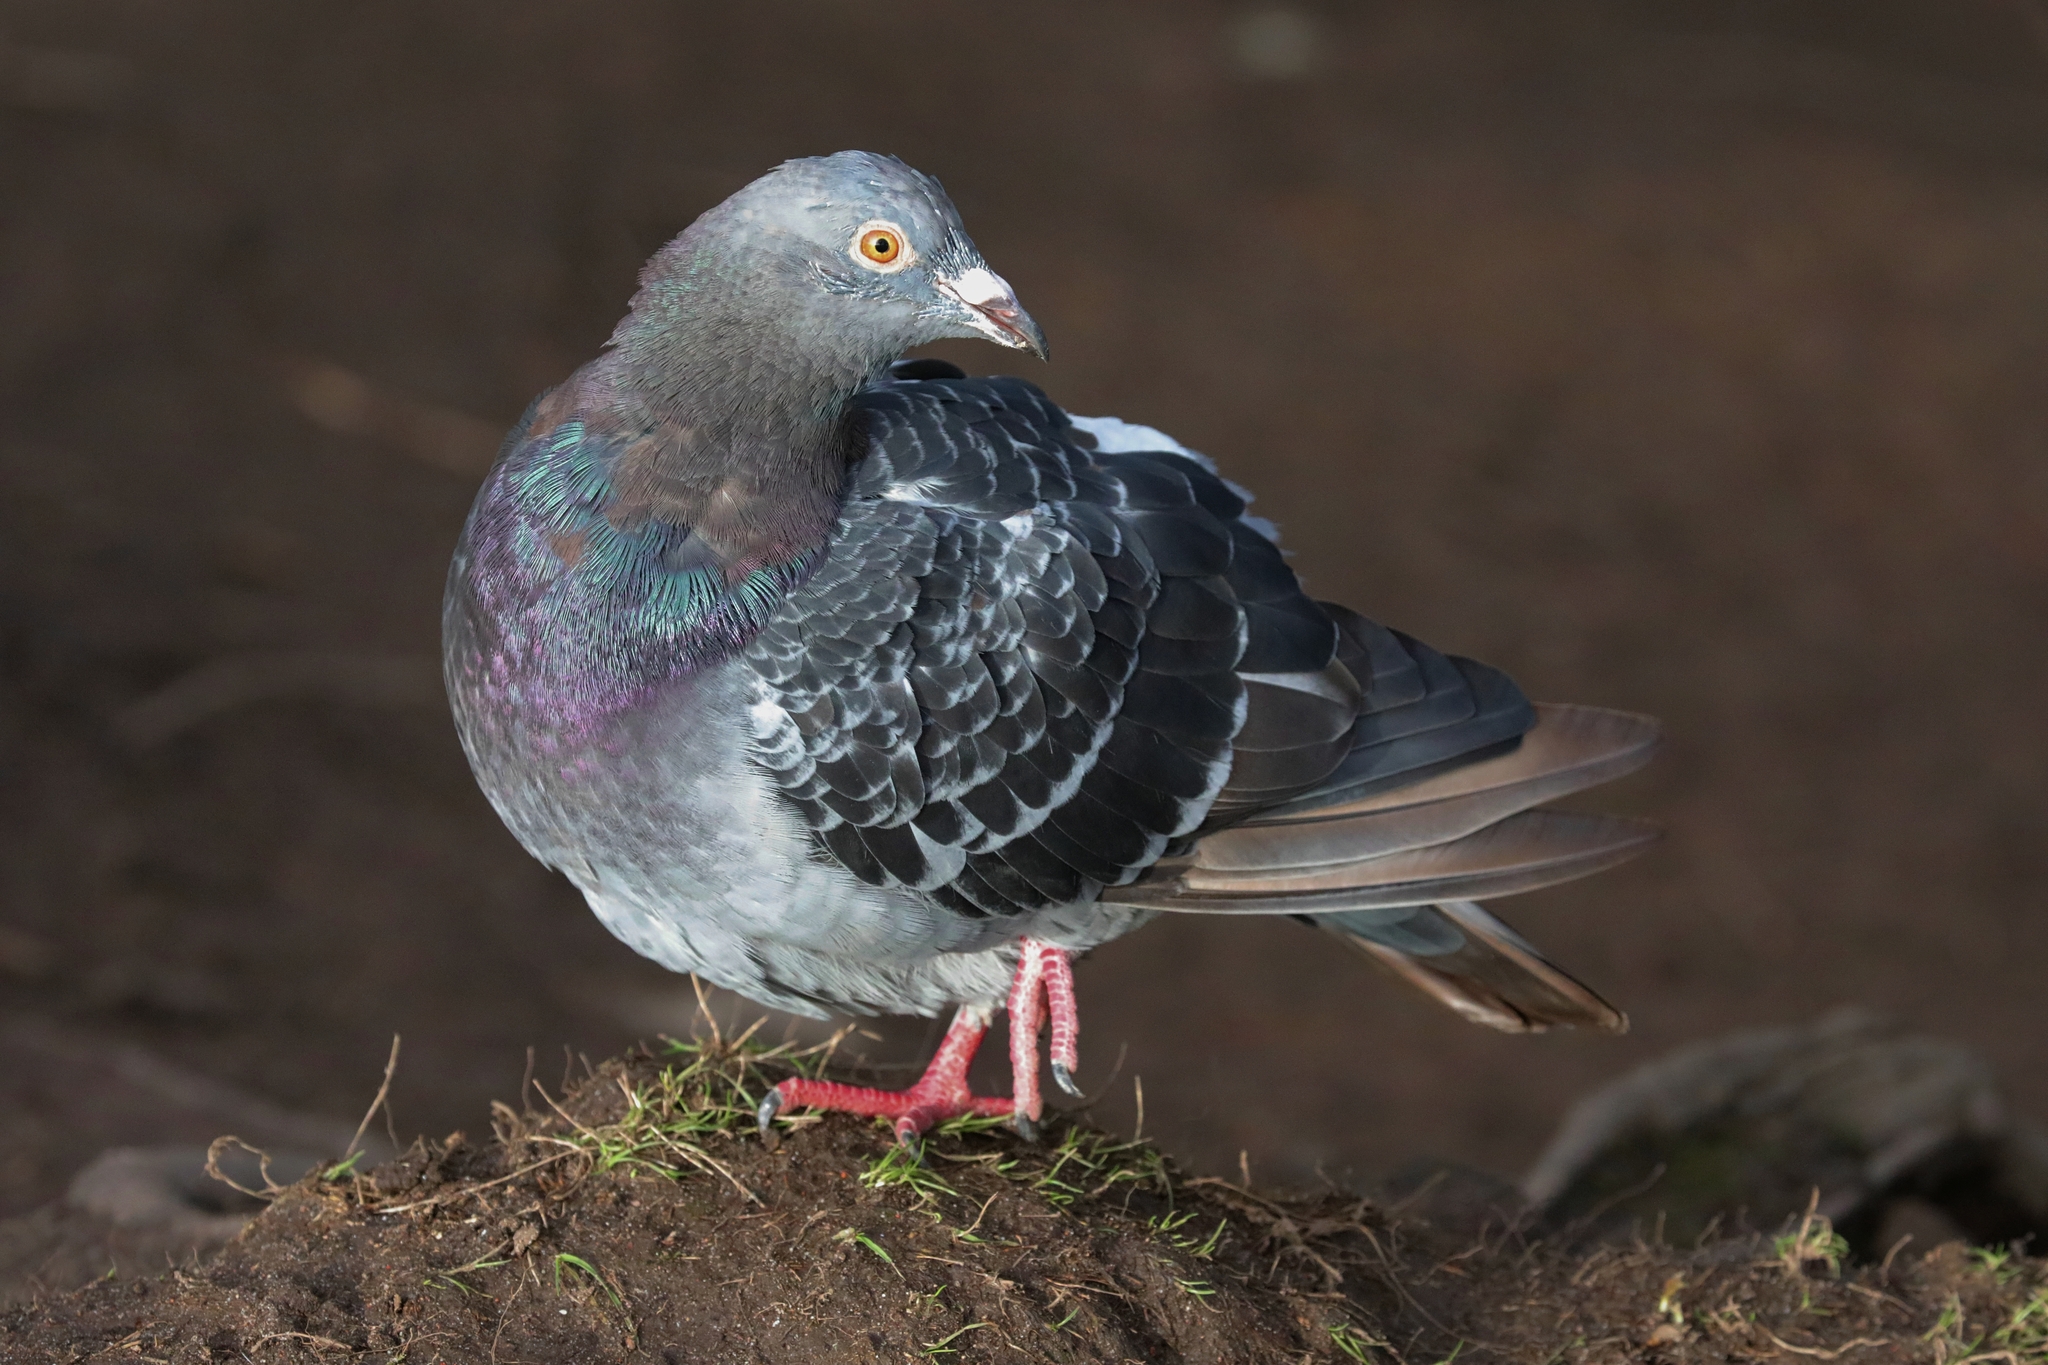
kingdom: Animalia
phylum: Chordata
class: Aves
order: Columbiformes
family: Columbidae
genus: Columba
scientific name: Columba livia
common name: Rock pigeon
